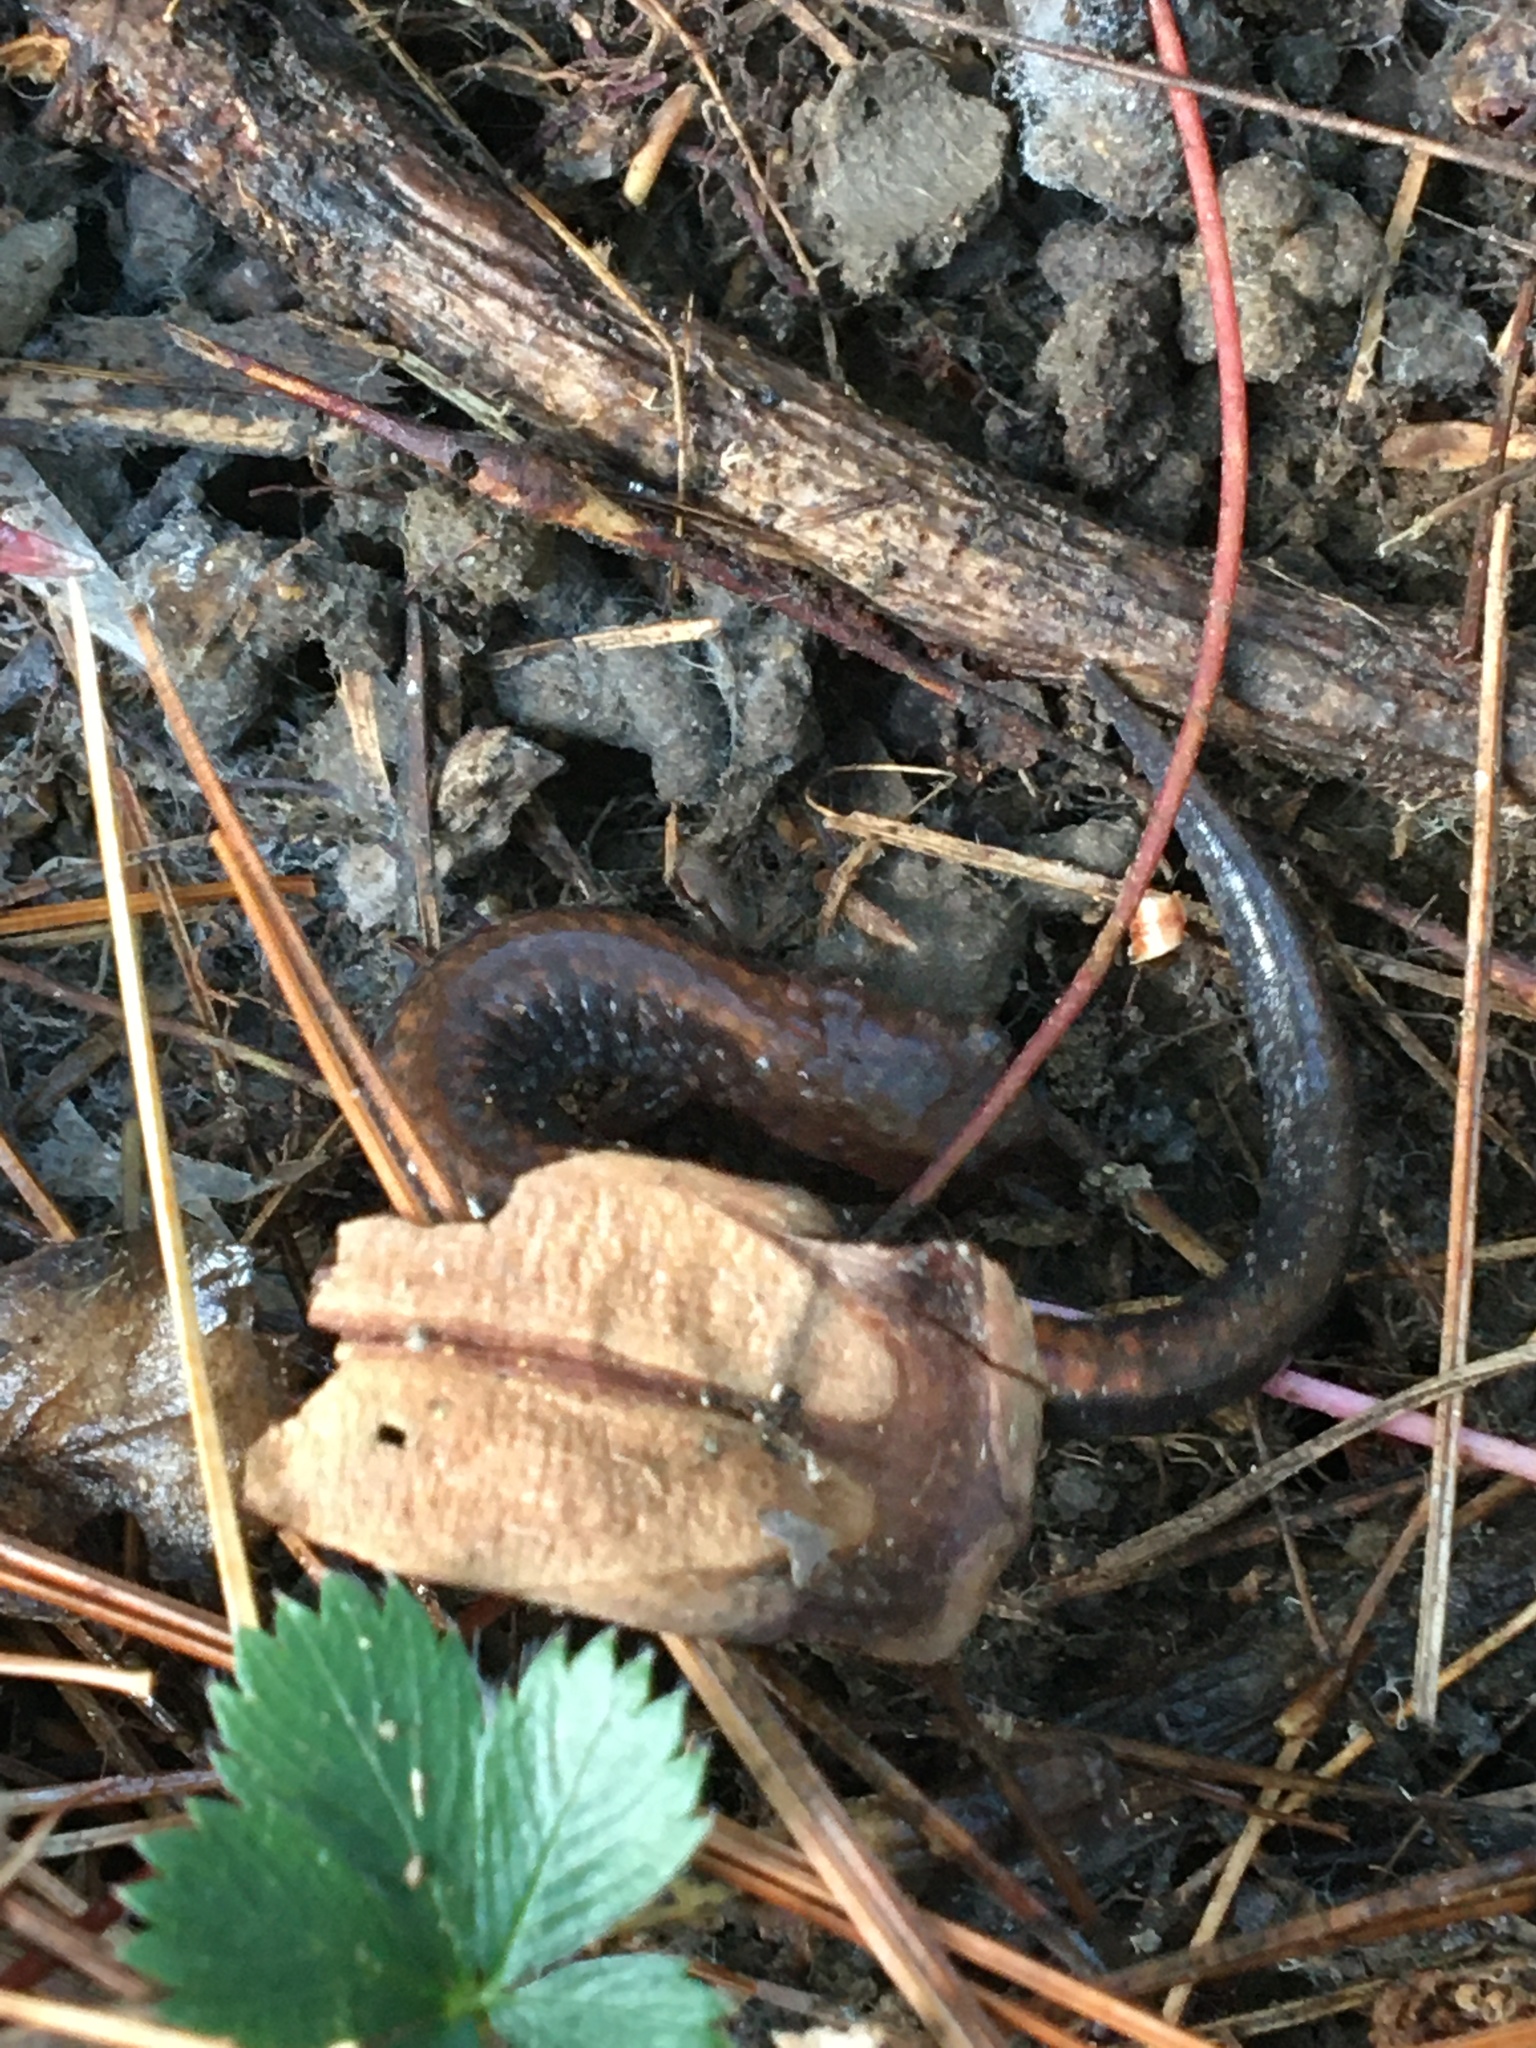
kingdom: Animalia
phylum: Chordata
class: Amphibia
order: Caudata
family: Plethodontidae
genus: Plethodon
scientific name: Plethodon cinereus
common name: Redback salamander
